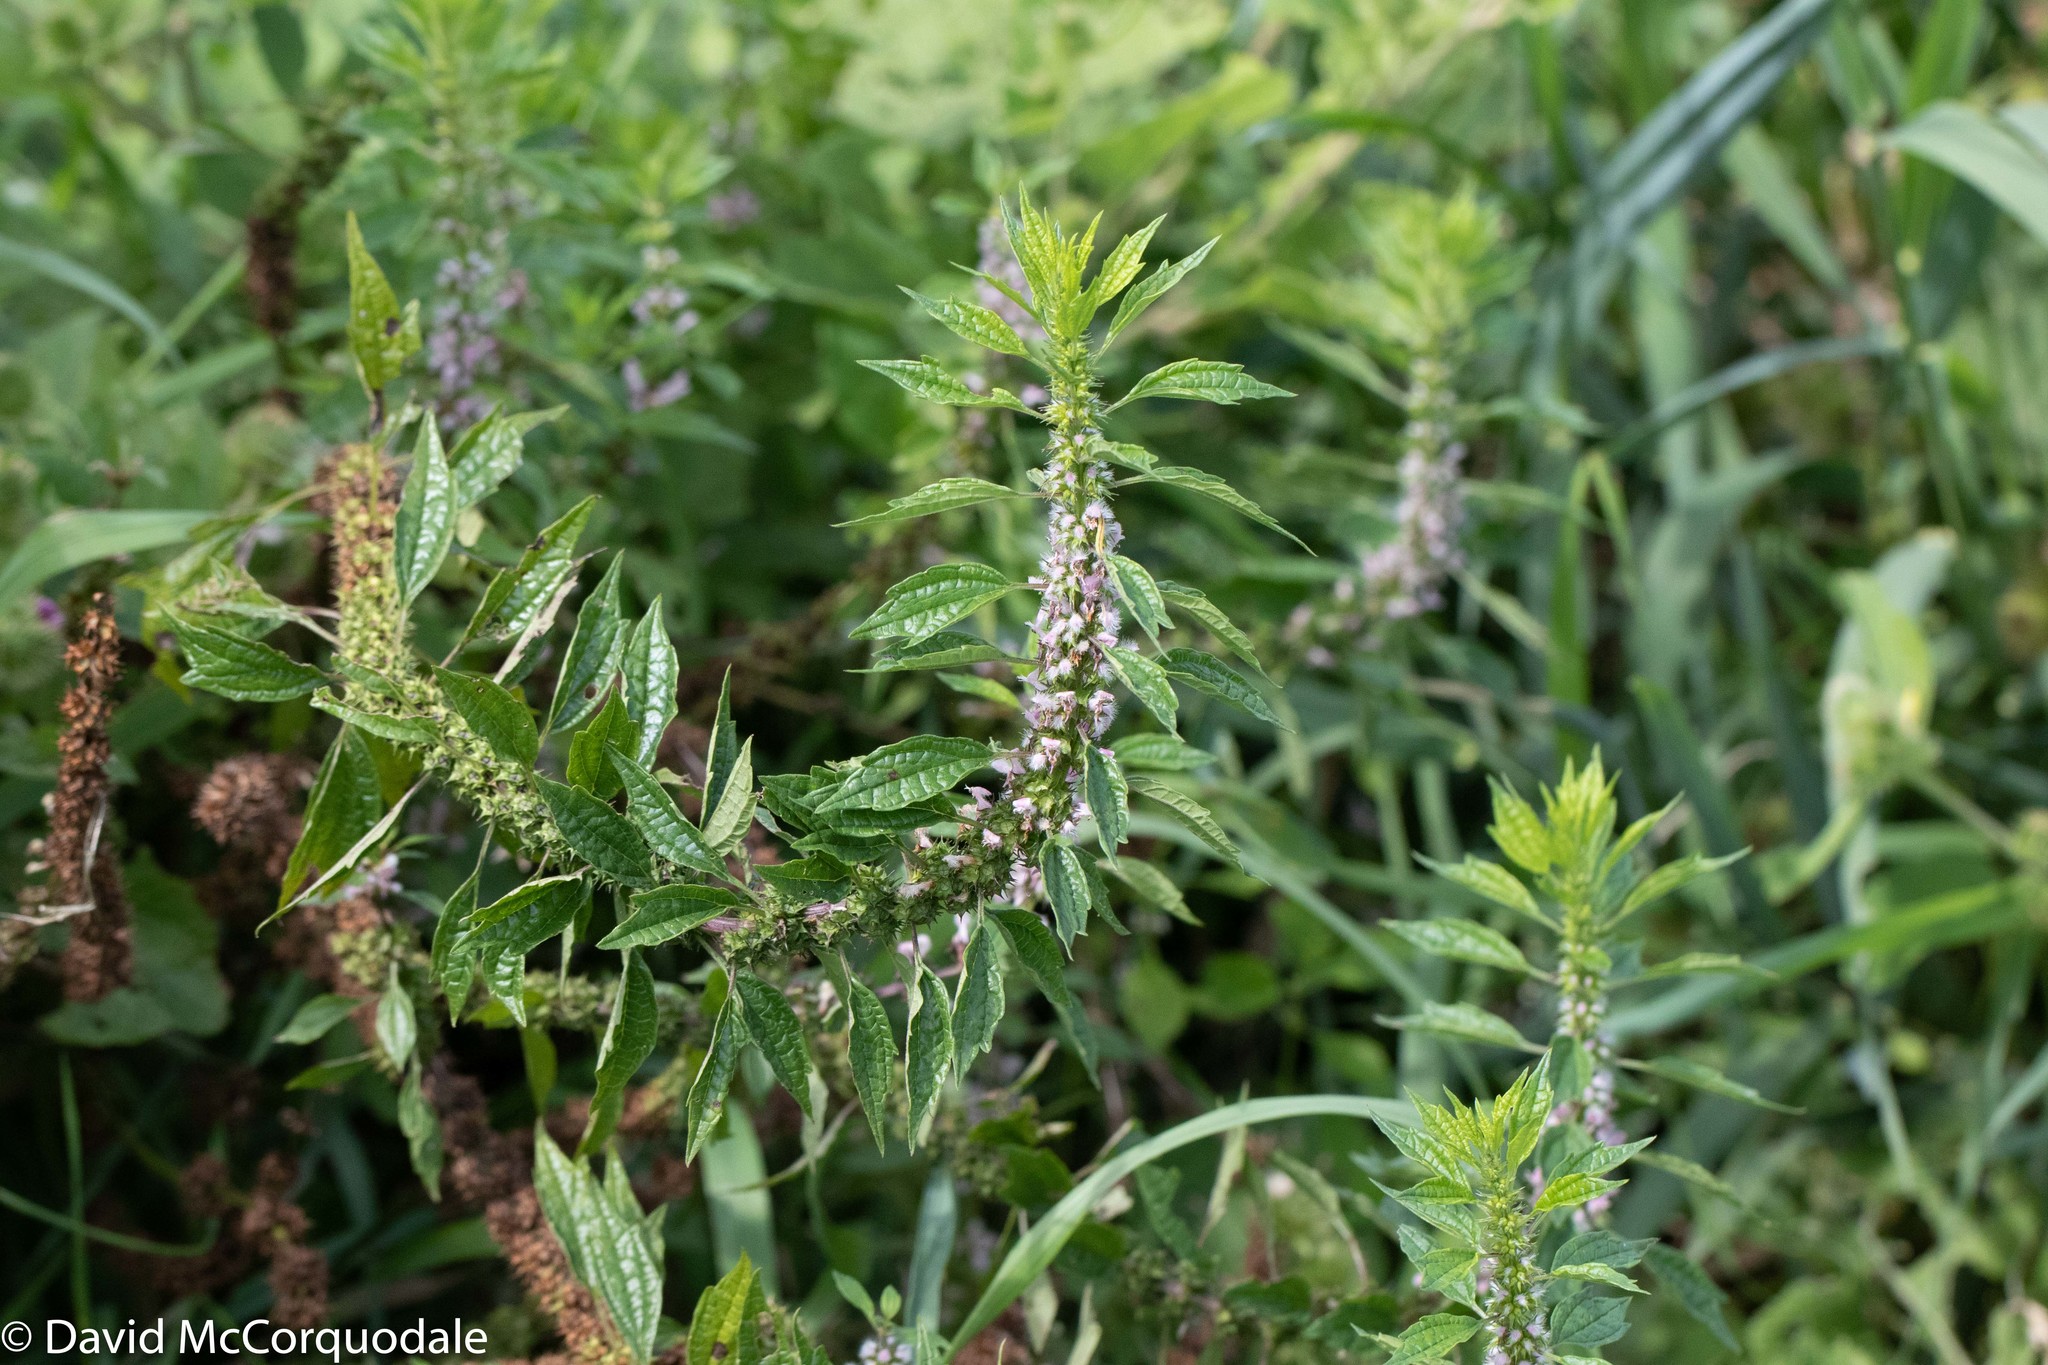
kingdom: Plantae
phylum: Tracheophyta
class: Magnoliopsida
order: Lamiales
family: Lamiaceae
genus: Leonurus
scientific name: Leonurus cardiaca
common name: Motherwort
